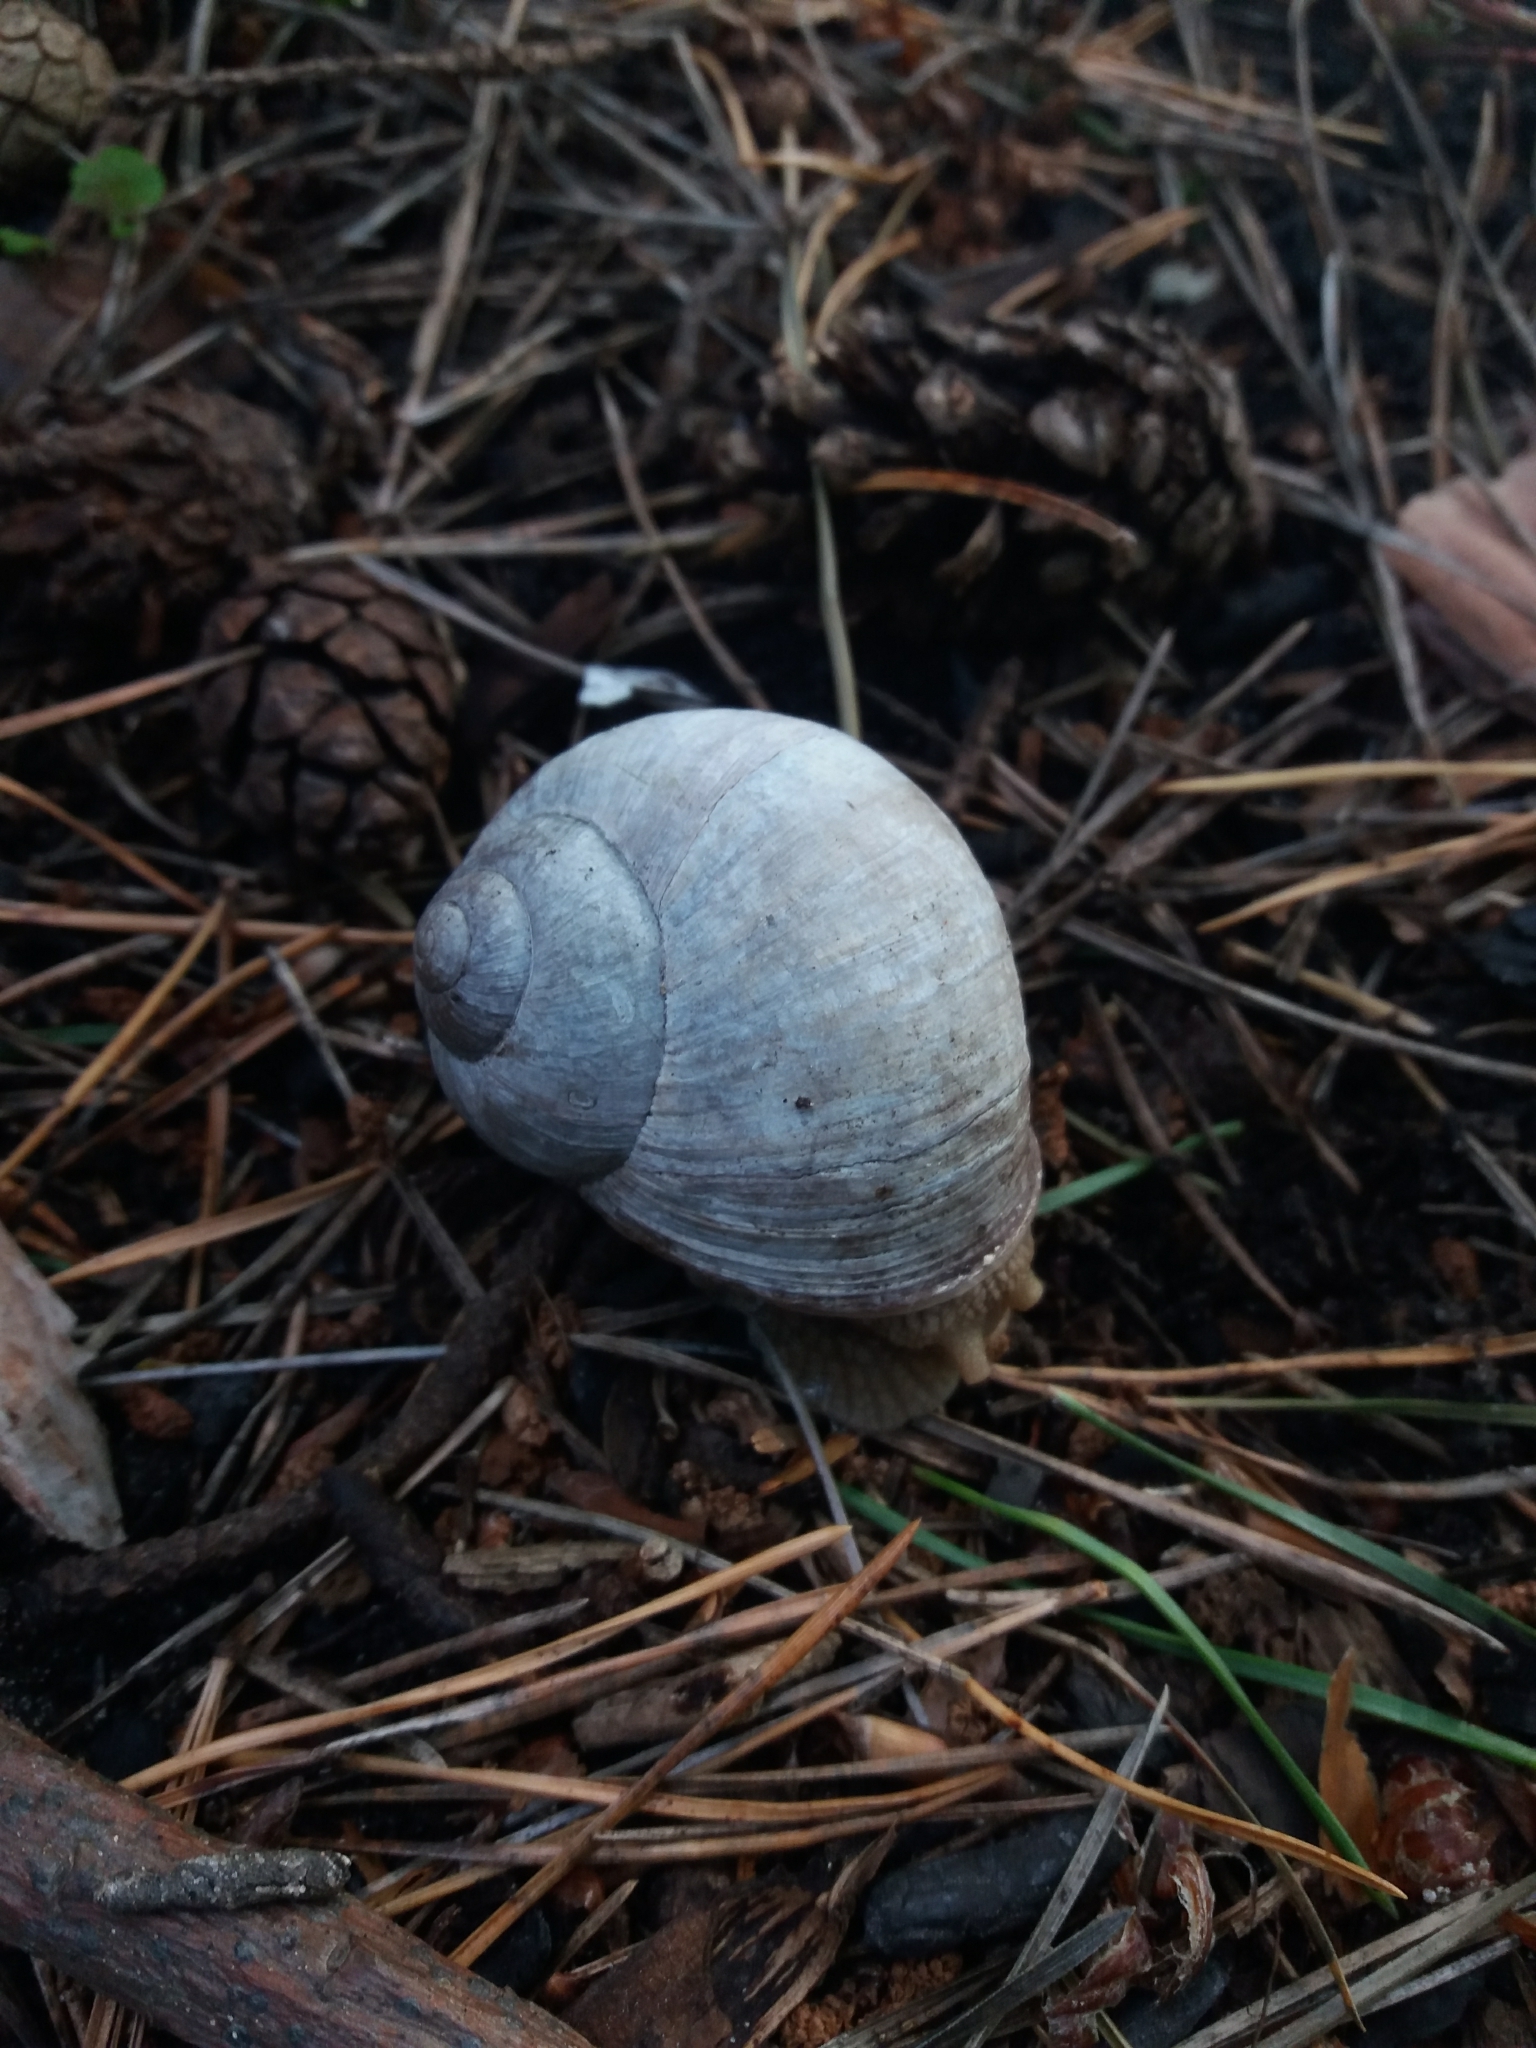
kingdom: Animalia
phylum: Mollusca
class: Gastropoda
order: Stylommatophora
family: Helicidae
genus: Helix
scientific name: Helix pomatia
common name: Roman snail
